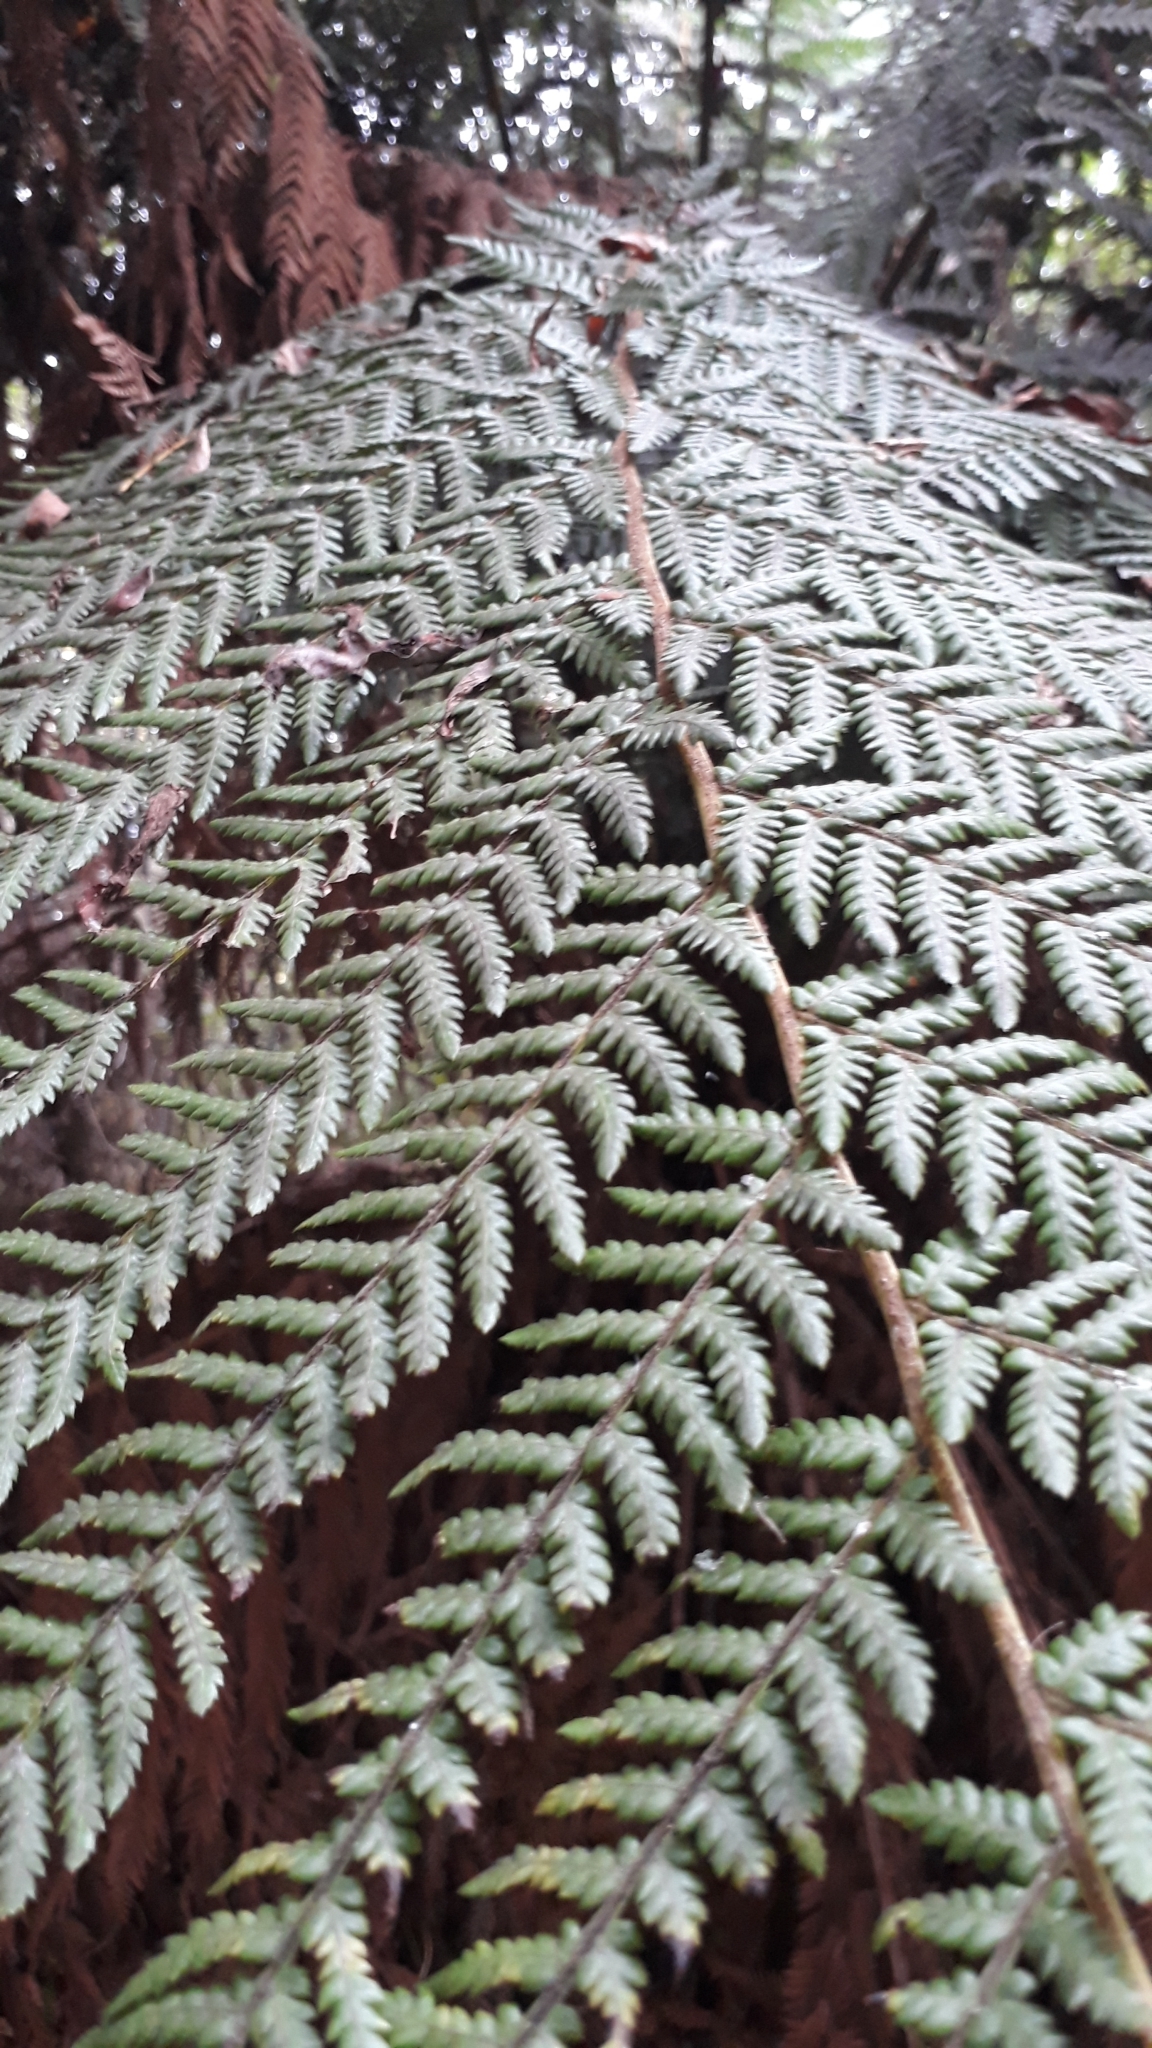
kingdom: Plantae
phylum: Tracheophyta
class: Polypodiopsida
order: Cyatheales
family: Dicksoniaceae
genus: Dicksonia
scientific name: Dicksonia fibrosa
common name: Golden tree fern
